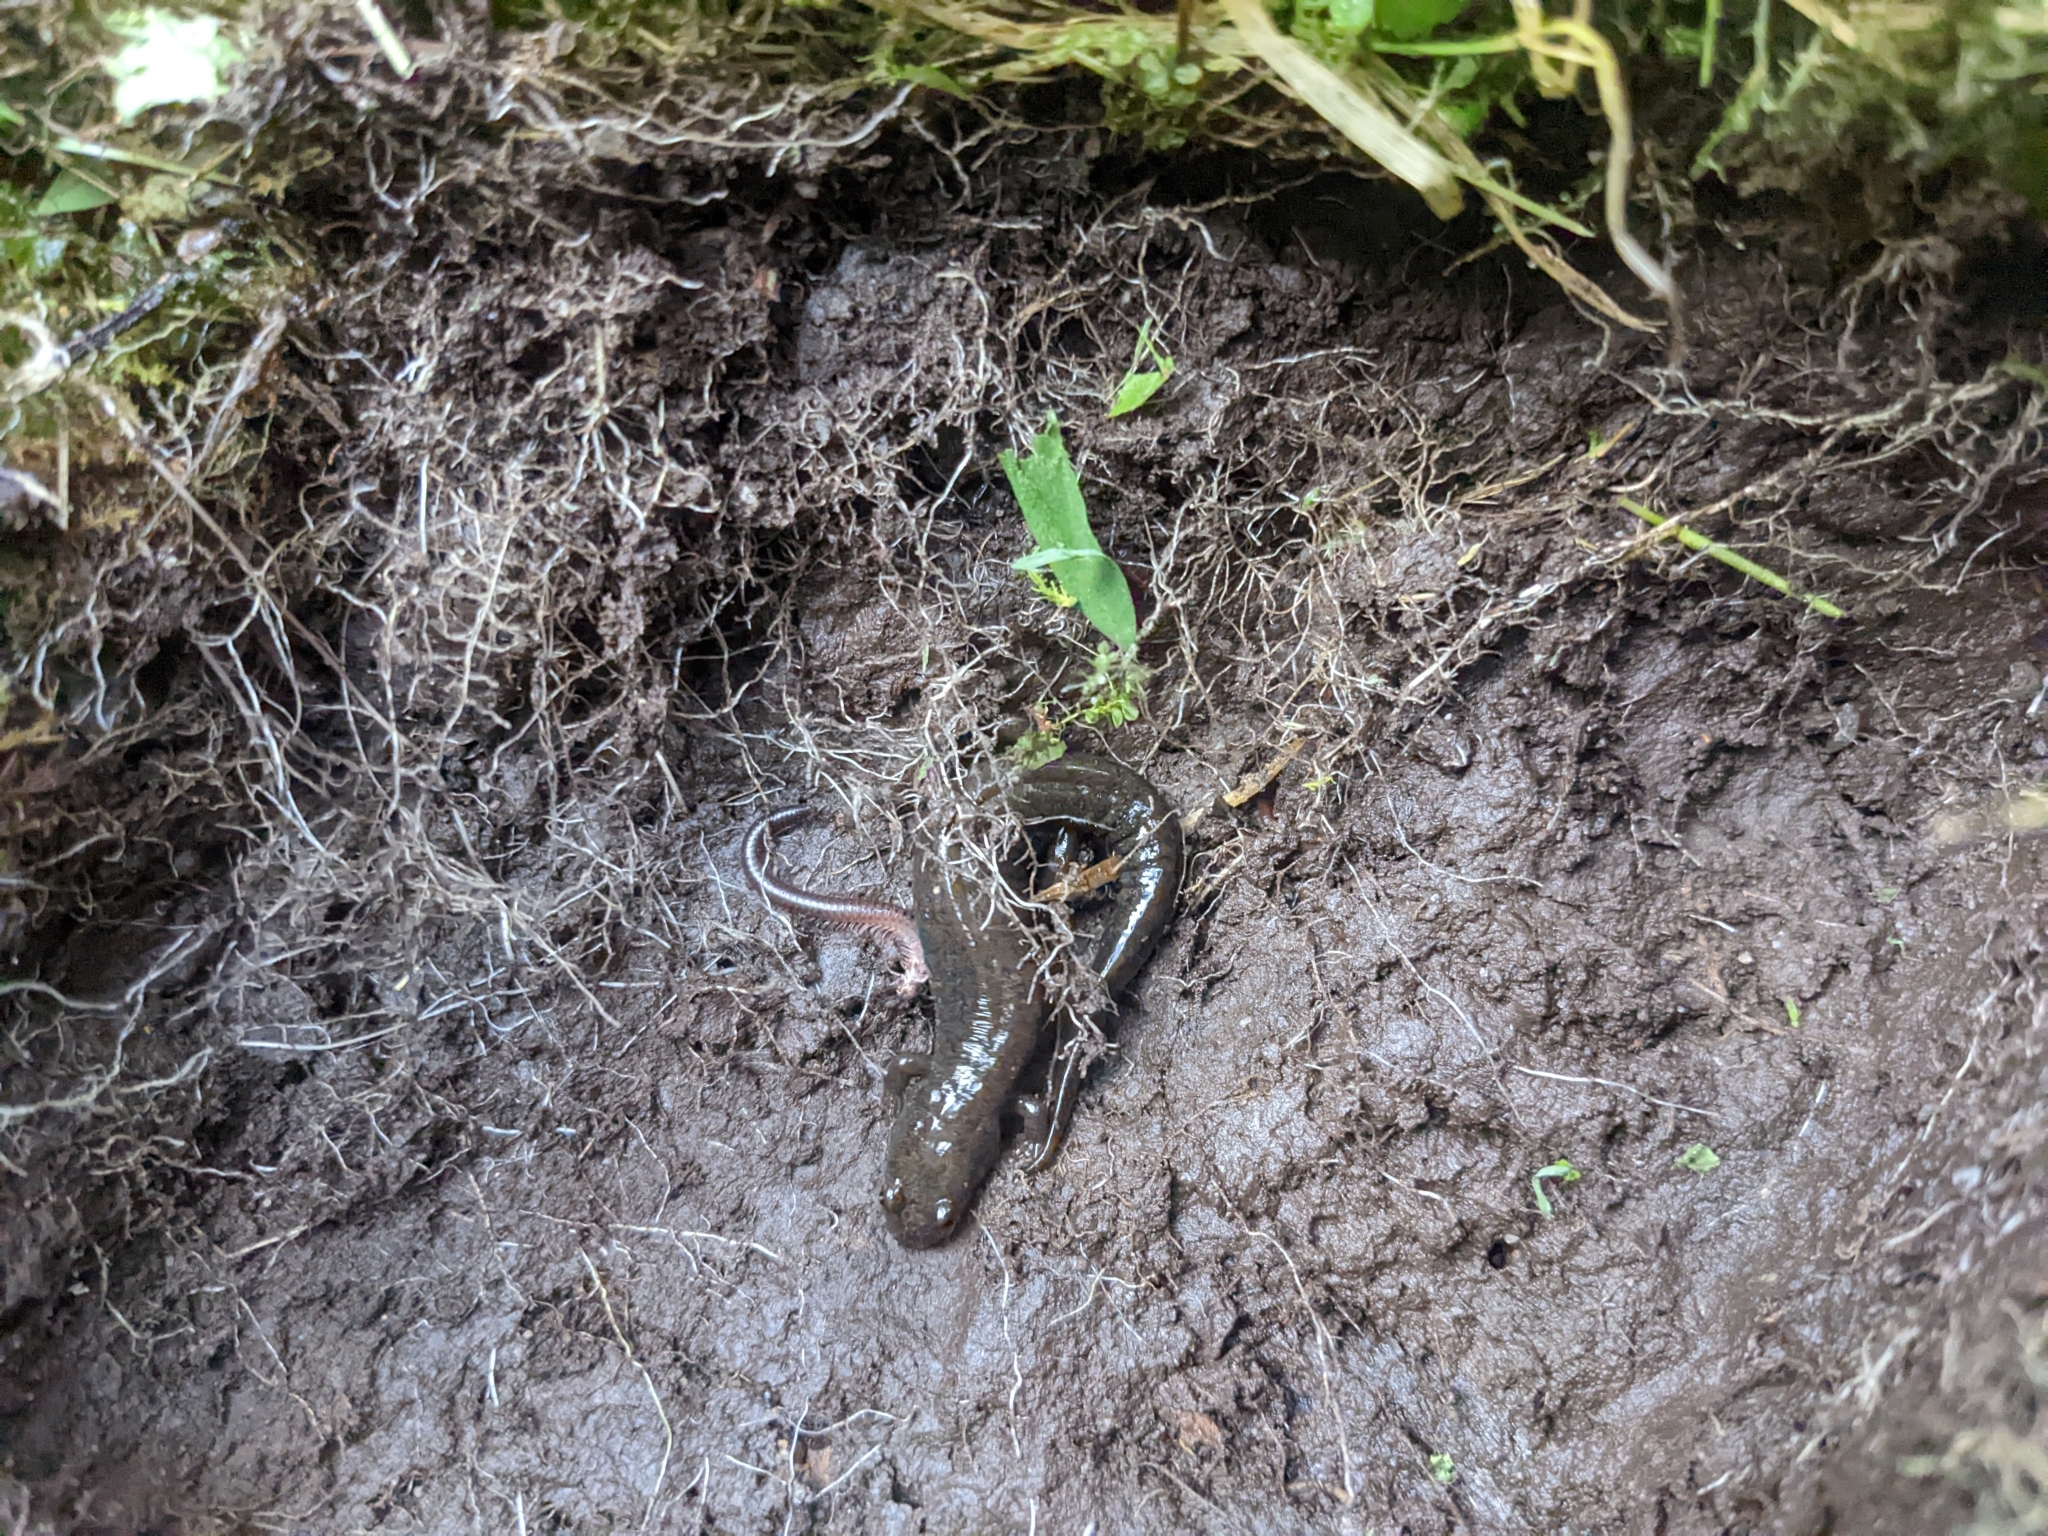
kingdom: Animalia
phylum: Chordata
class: Amphibia
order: Caudata
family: Plethodontidae
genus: Desmognathus
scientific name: Desmognathus fuscus
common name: Northern dusky salamander
